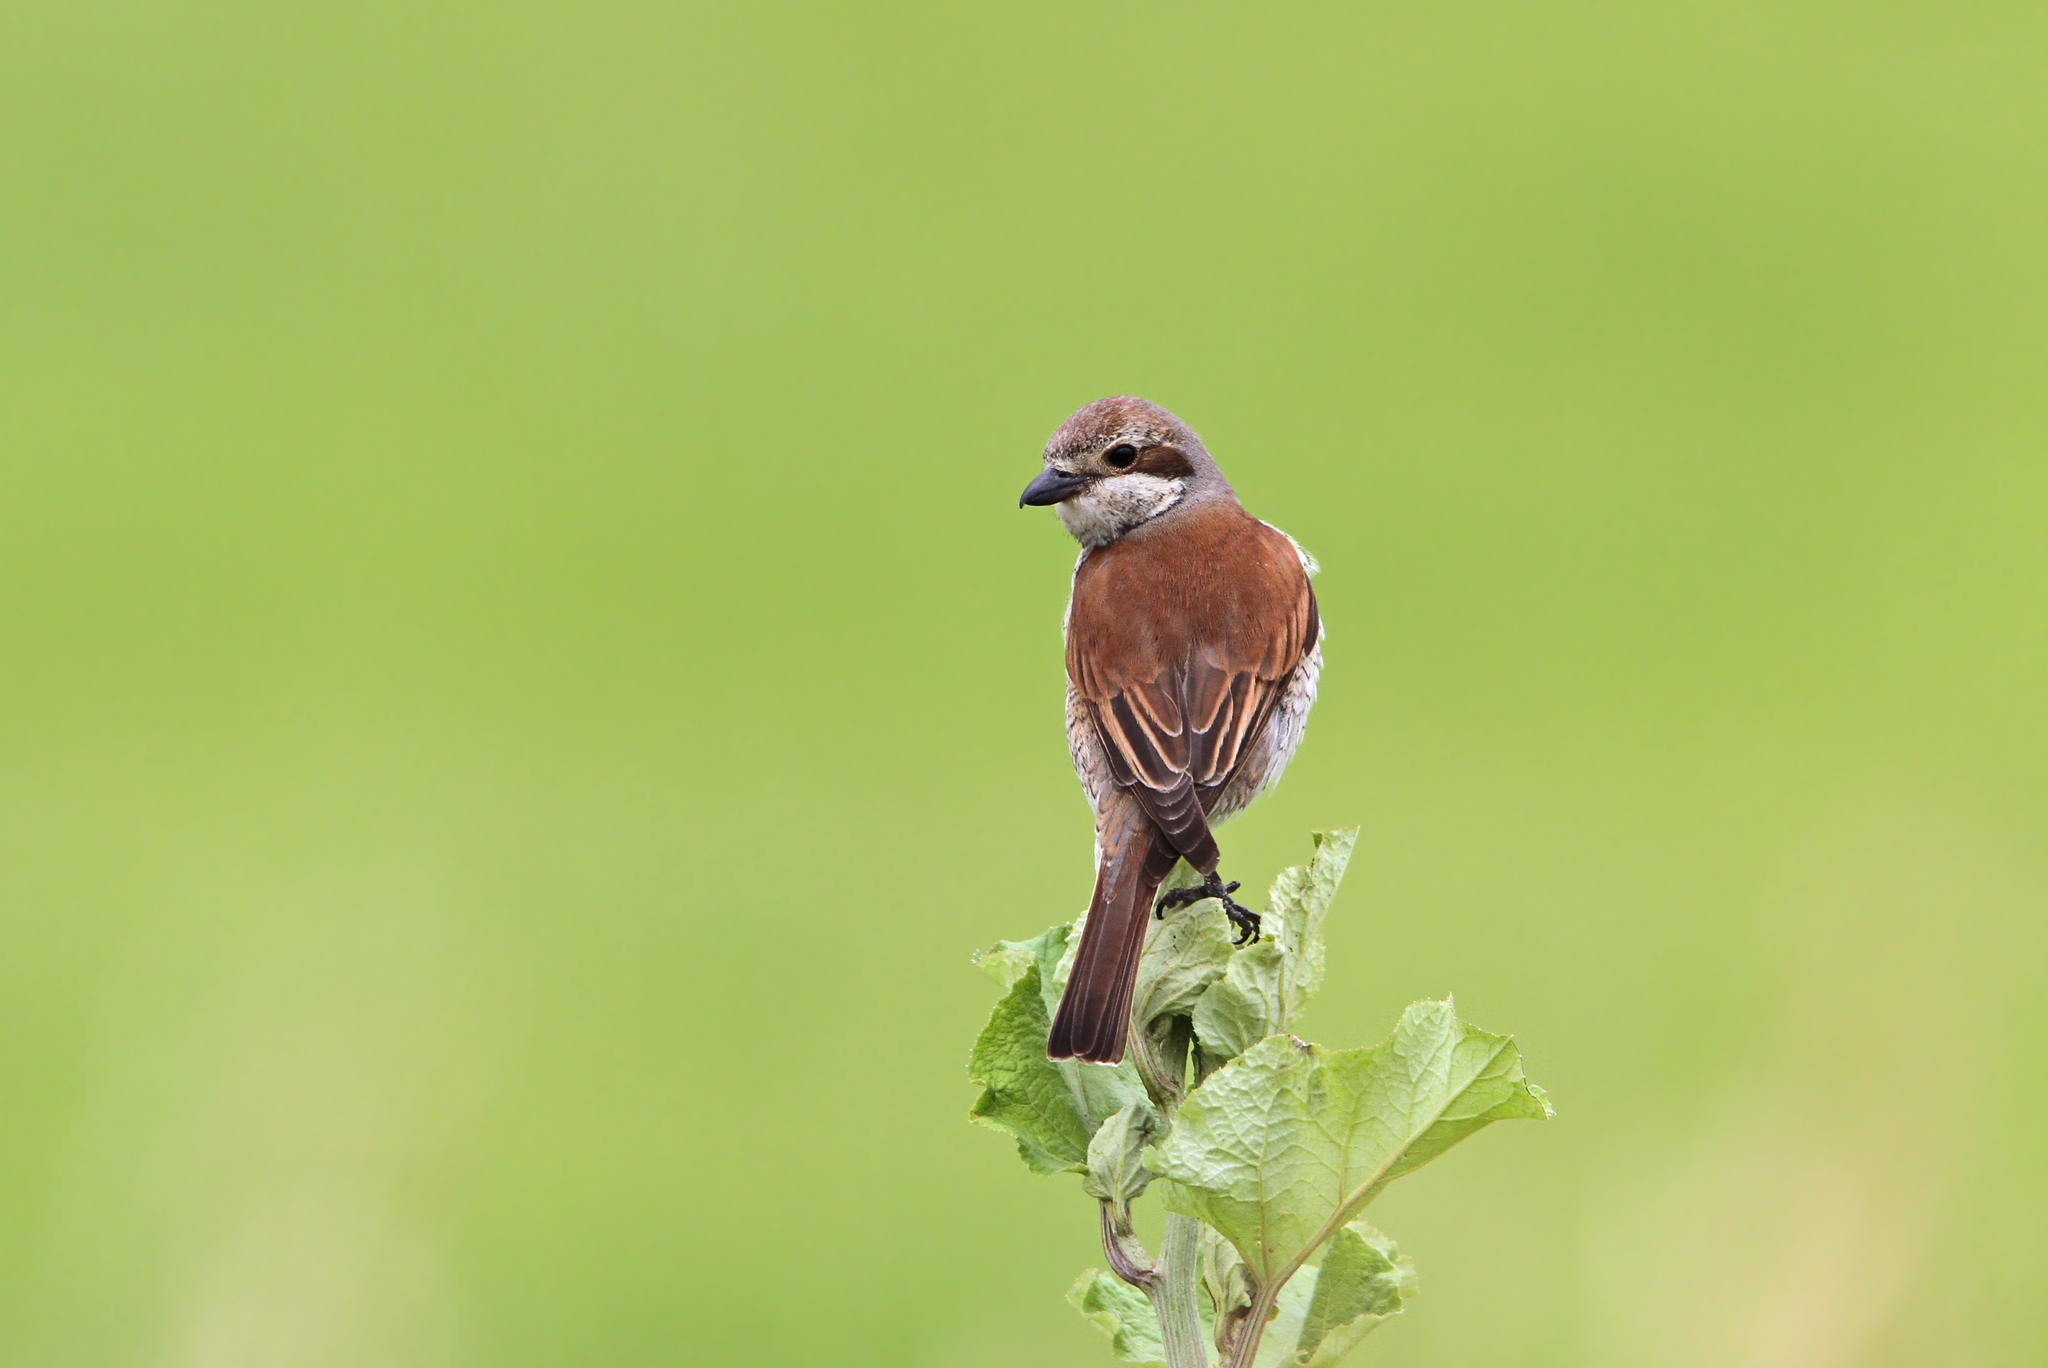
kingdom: Animalia
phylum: Chordata
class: Aves
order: Passeriformes
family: Laniidae
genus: Lanius
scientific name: Lanius collurio
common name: Red-backed shrike
